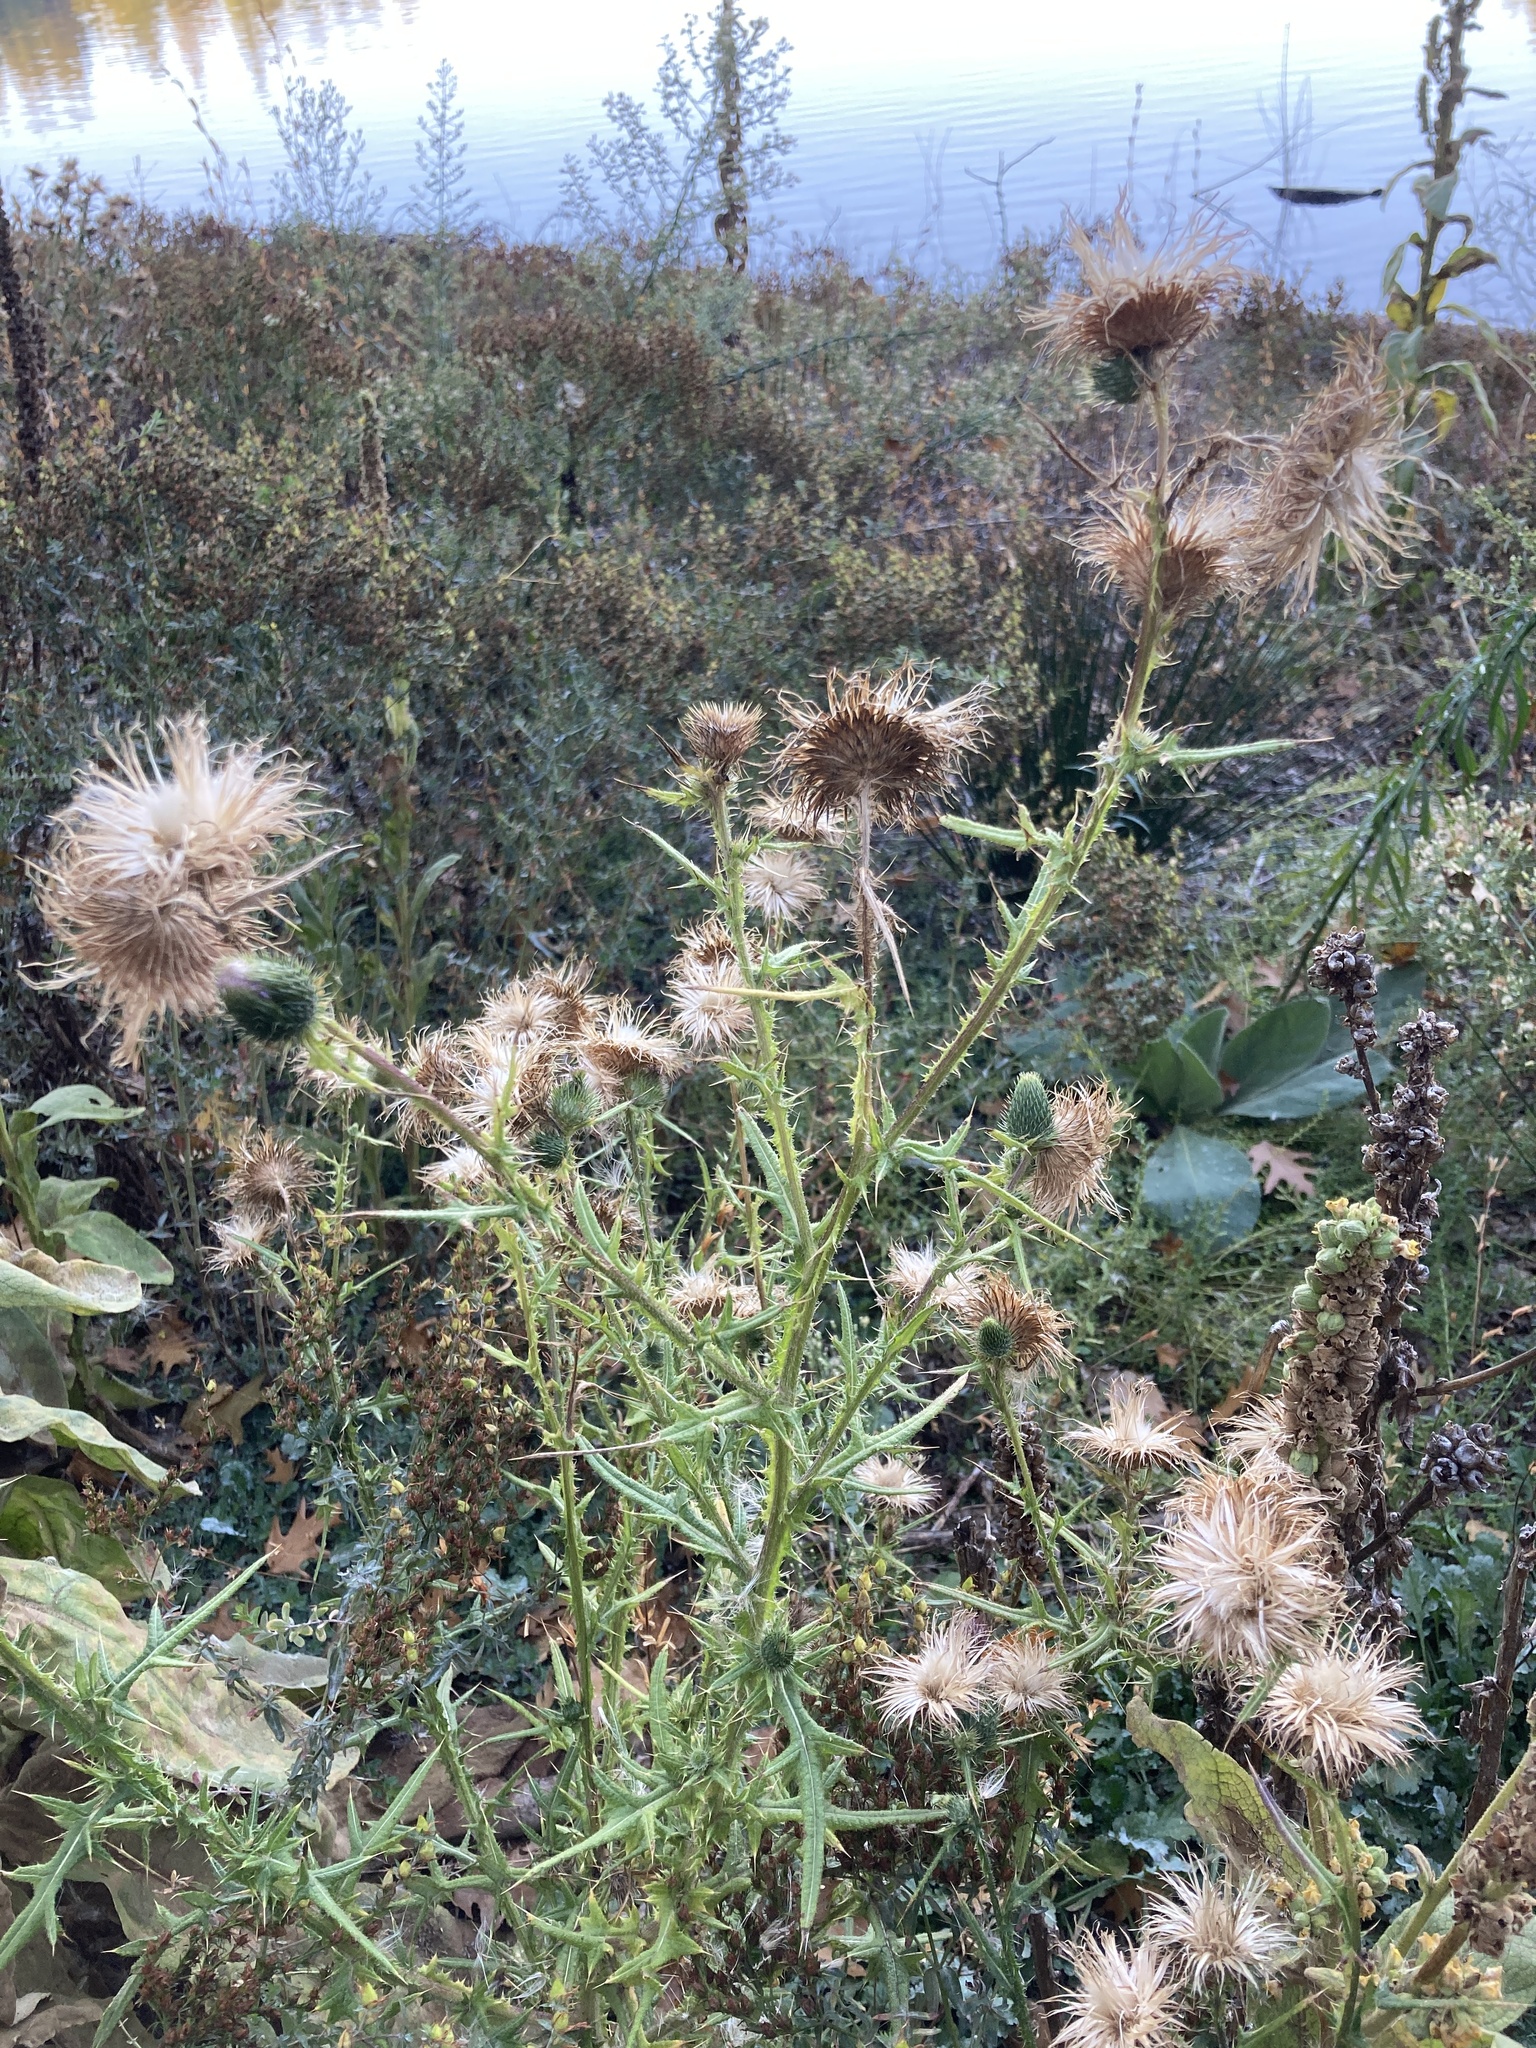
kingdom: Plantae
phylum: Tracheophyta
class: Magnoliopsida
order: Asterales
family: Asteraceae
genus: Cirsium
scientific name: Cirsium vulgare
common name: Bull thistle
